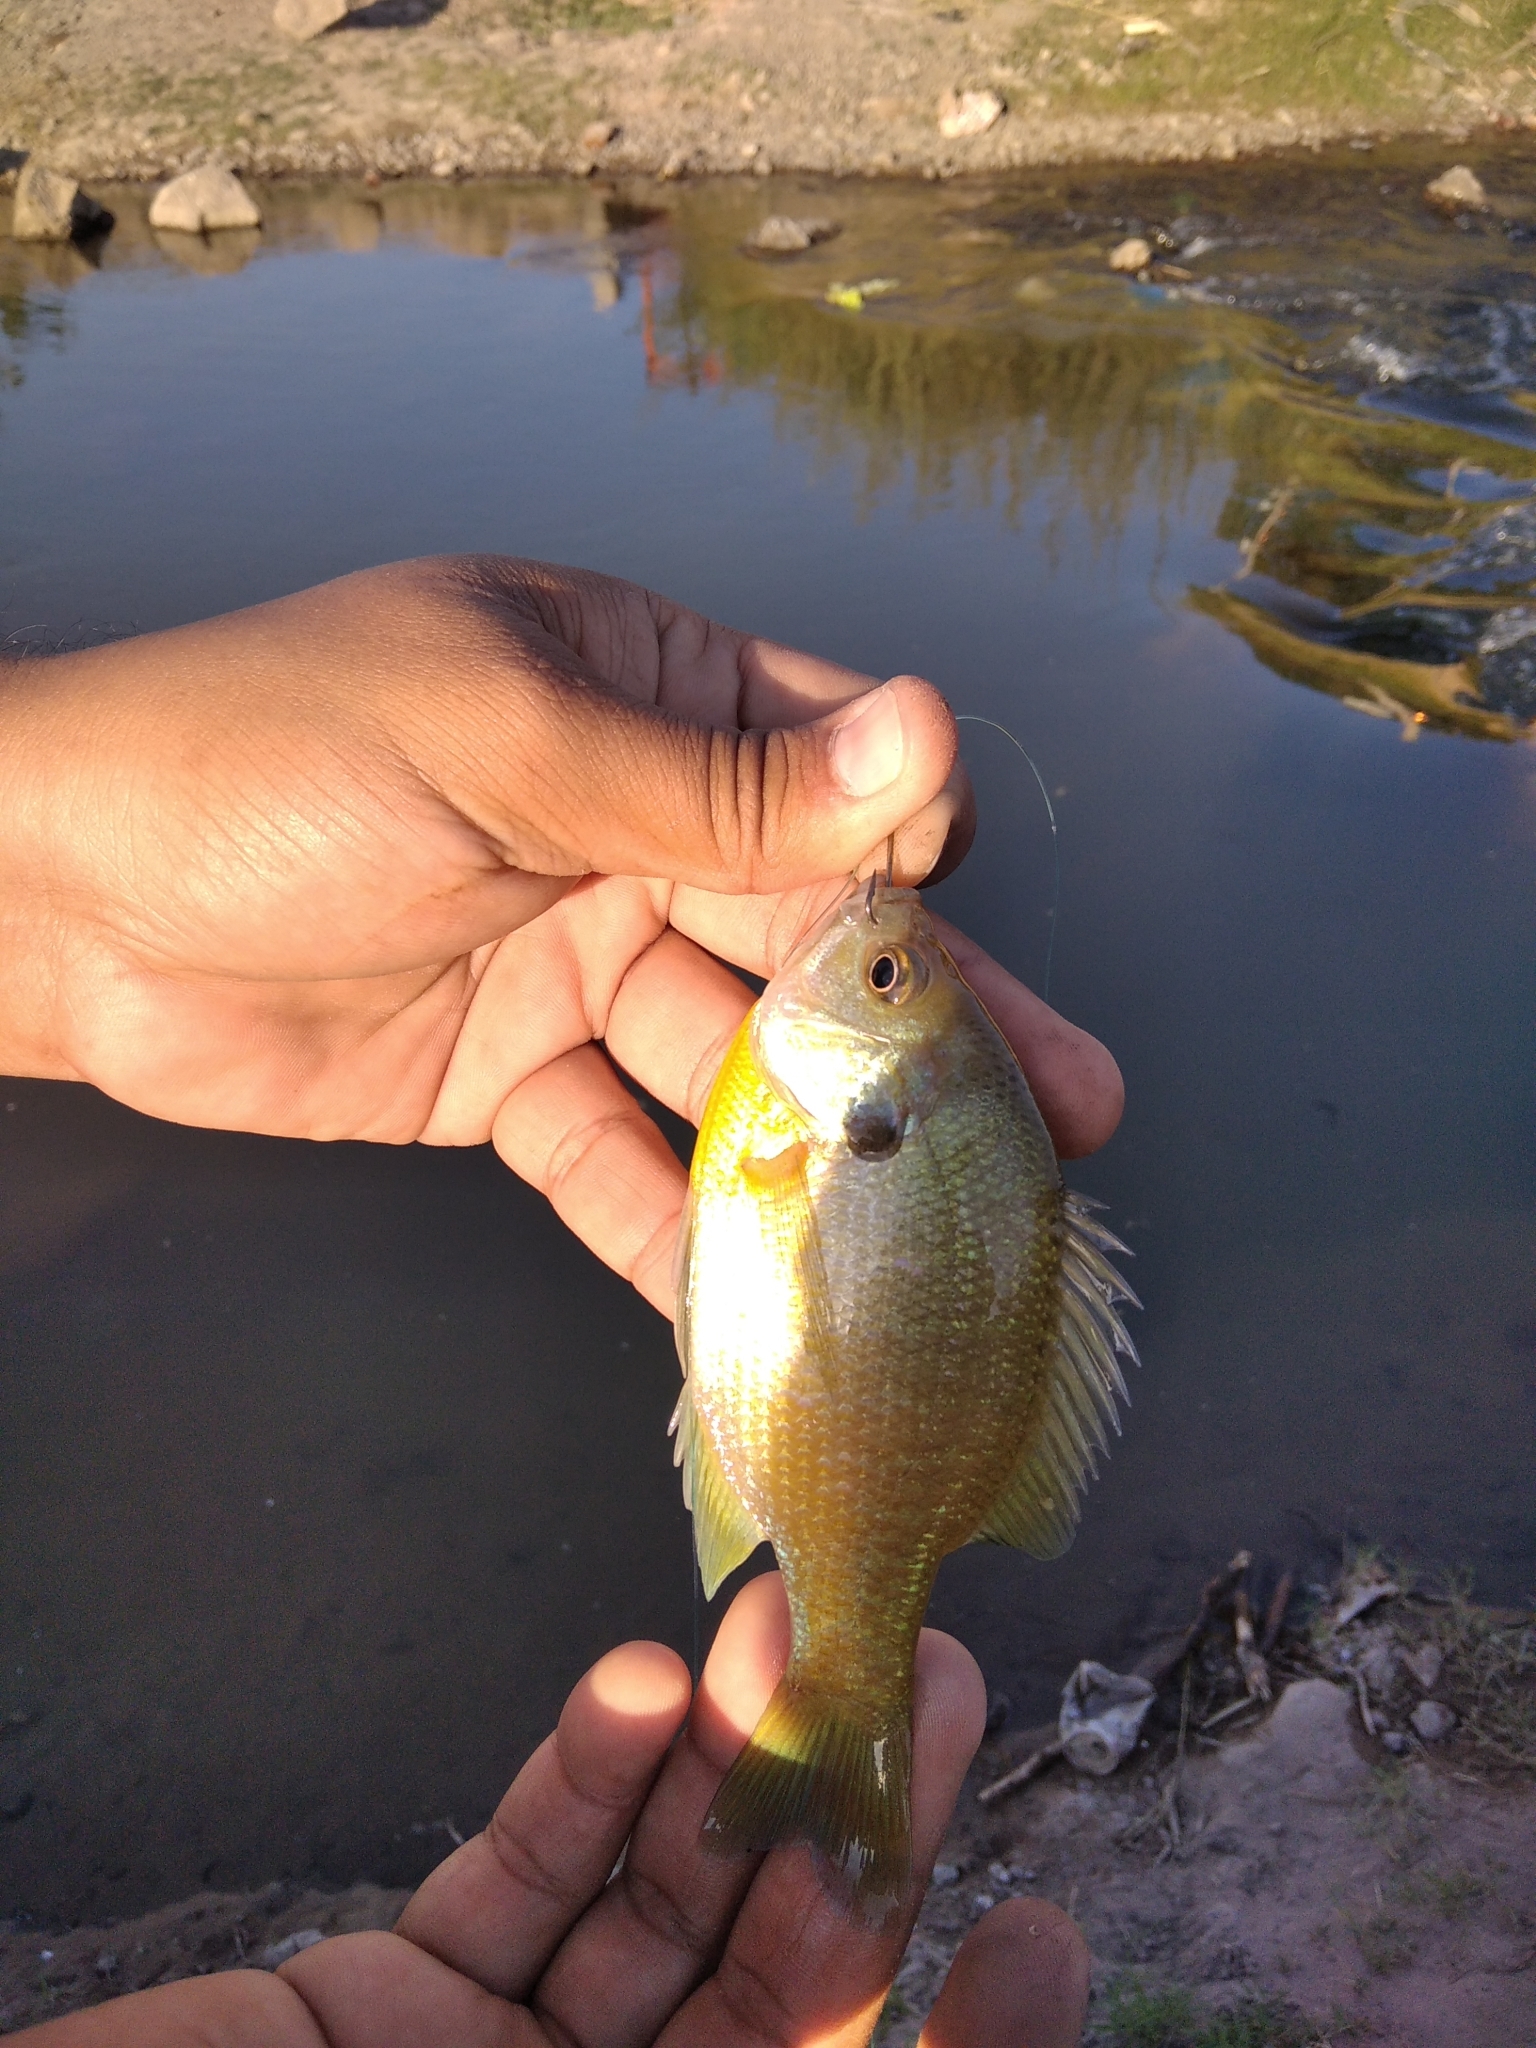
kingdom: Animalia
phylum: Chordata
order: Perciformes
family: Centrarchidae
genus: Lepomis
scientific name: Lepomis macrochirus
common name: Bluegill
